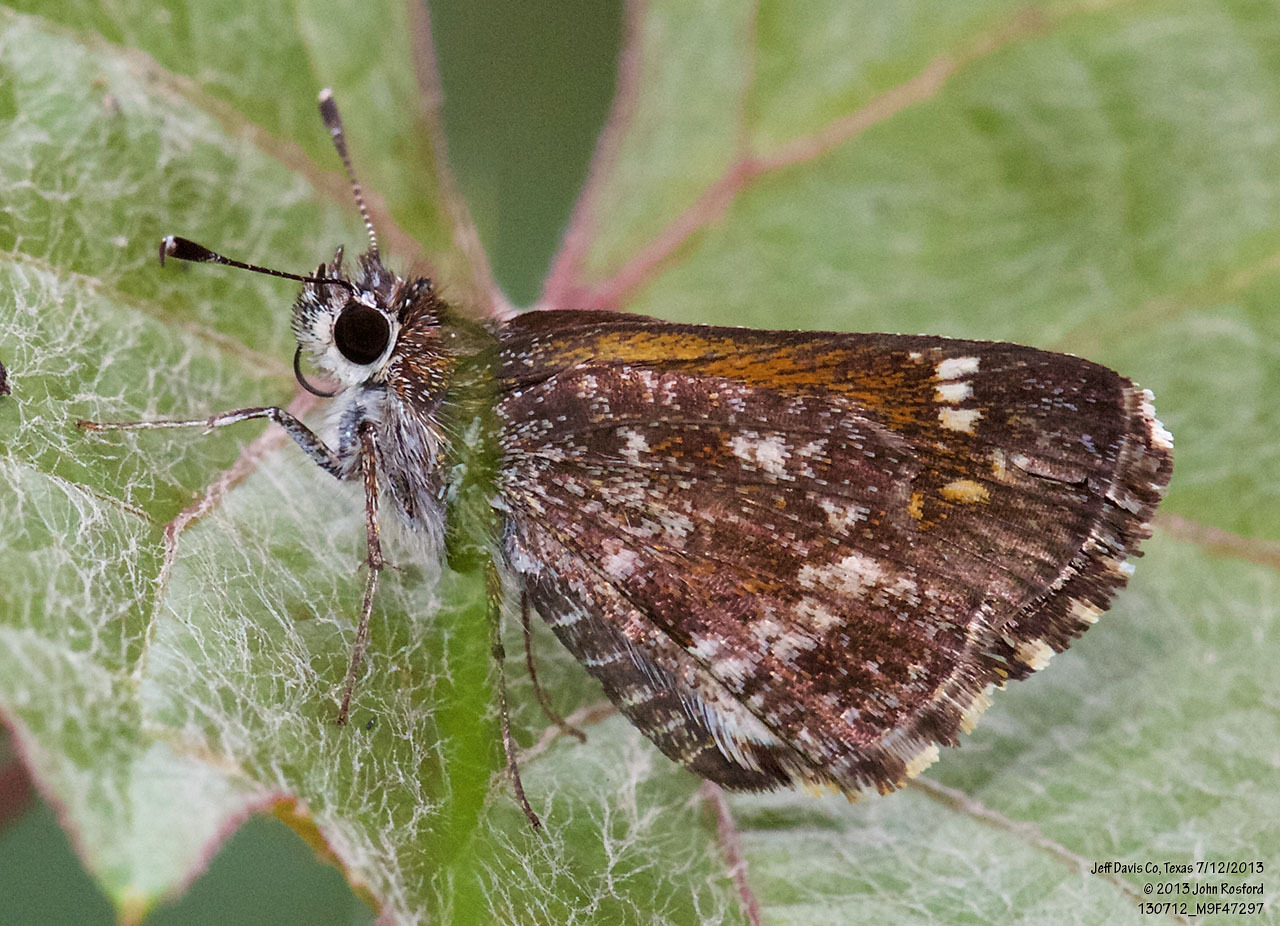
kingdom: Animalia
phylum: Arthropoda
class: Insecta
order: Lepidoptera
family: Hesperiidae
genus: Mastor
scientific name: Mastor aenus
